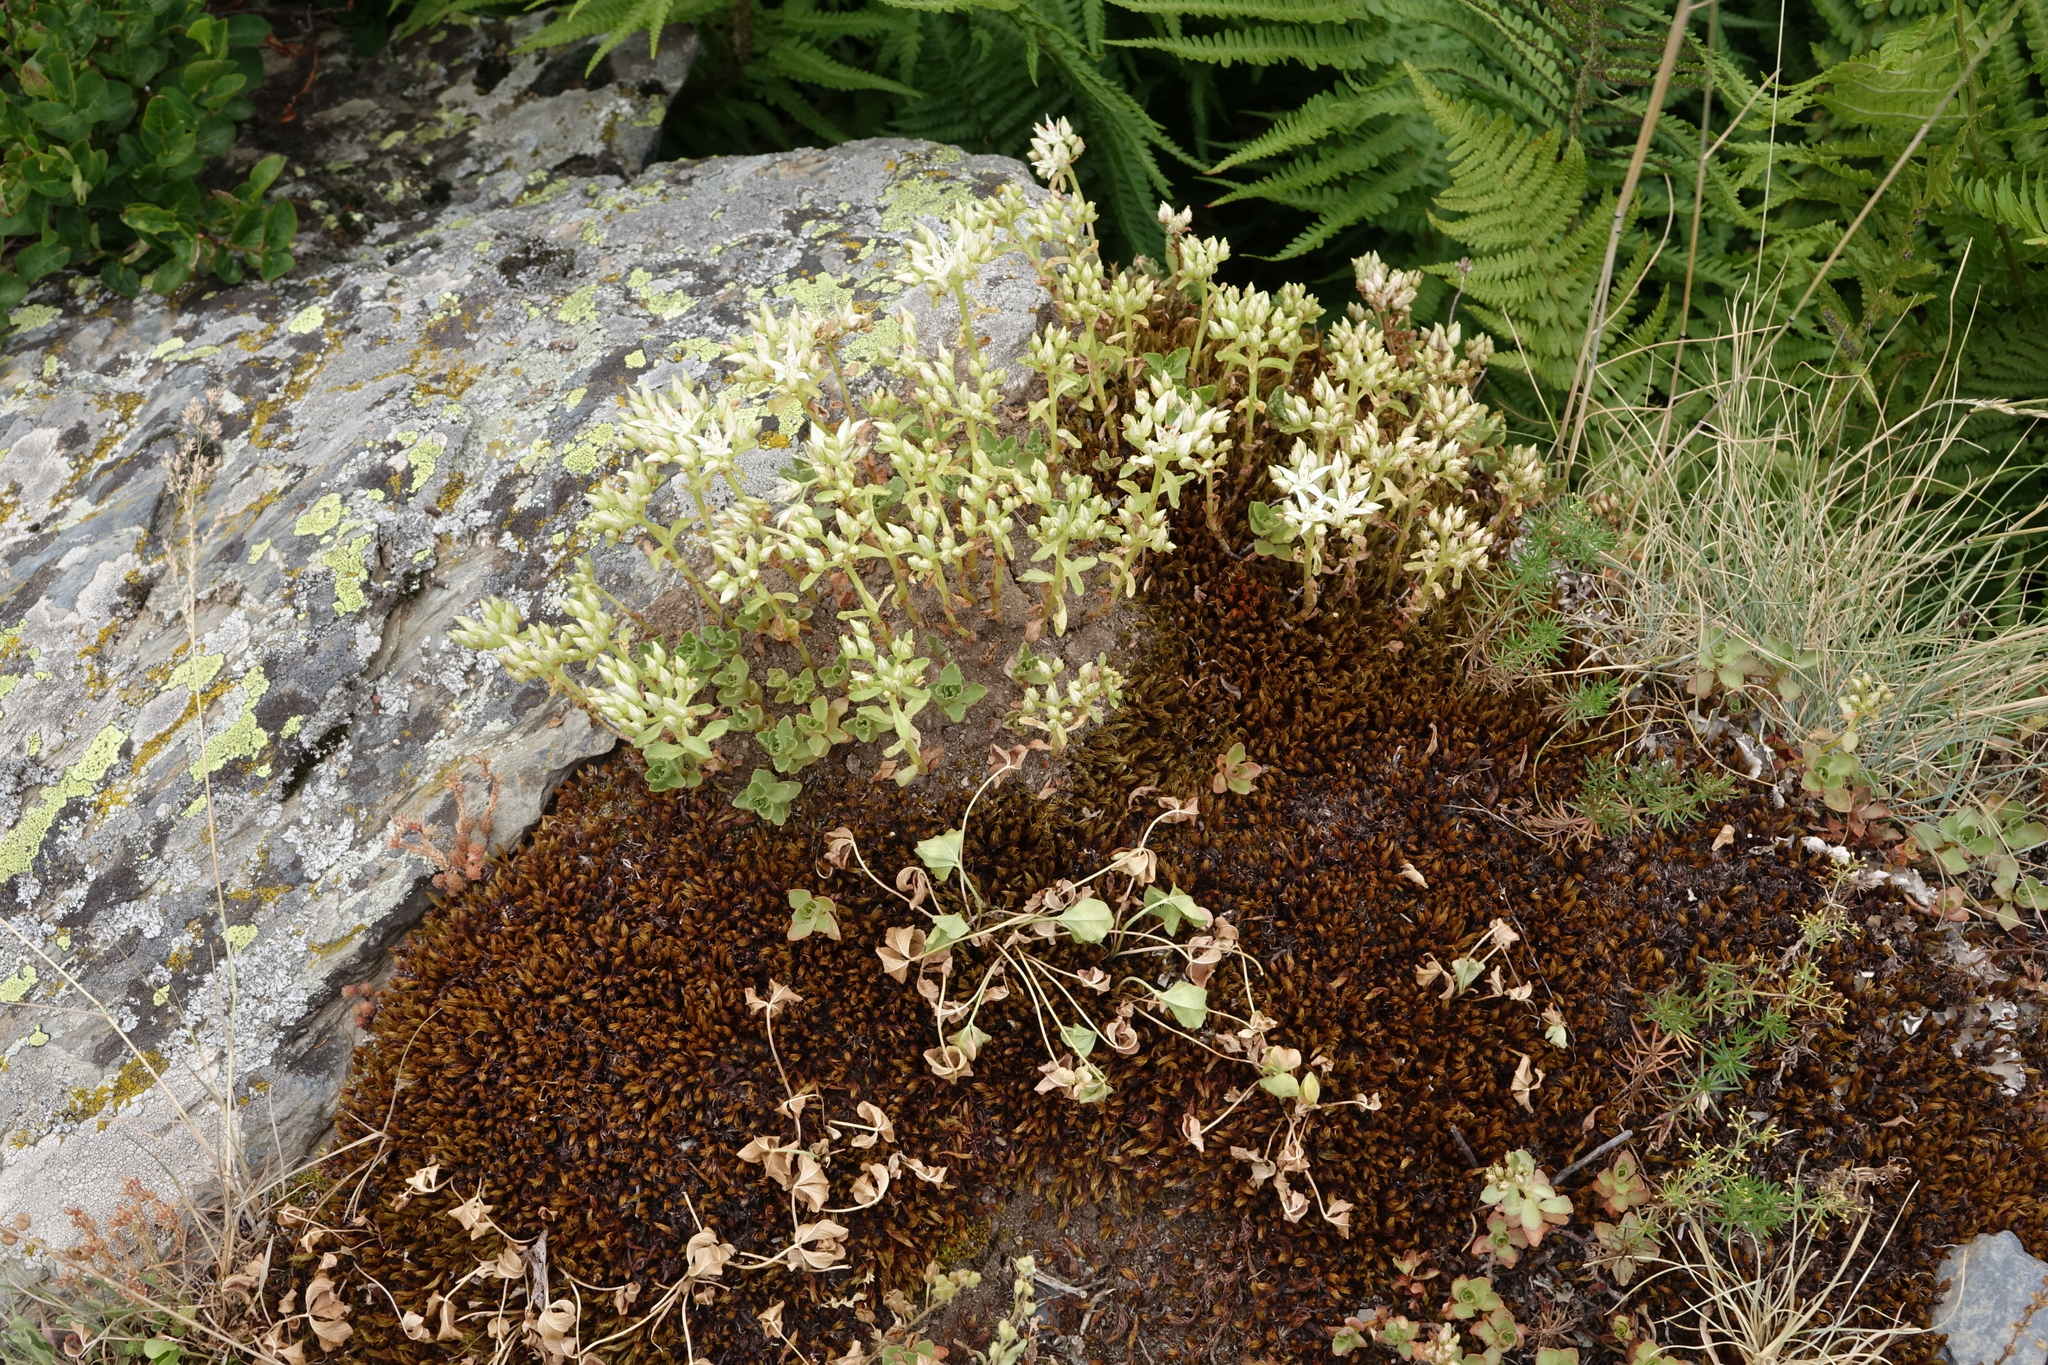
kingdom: Plantae
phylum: Tracheophyta
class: Magnoliopsida
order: Saxifragales
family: Crassulaceae
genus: Phedimus
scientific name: Phedimus spurius
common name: Caucasian stonecrop
